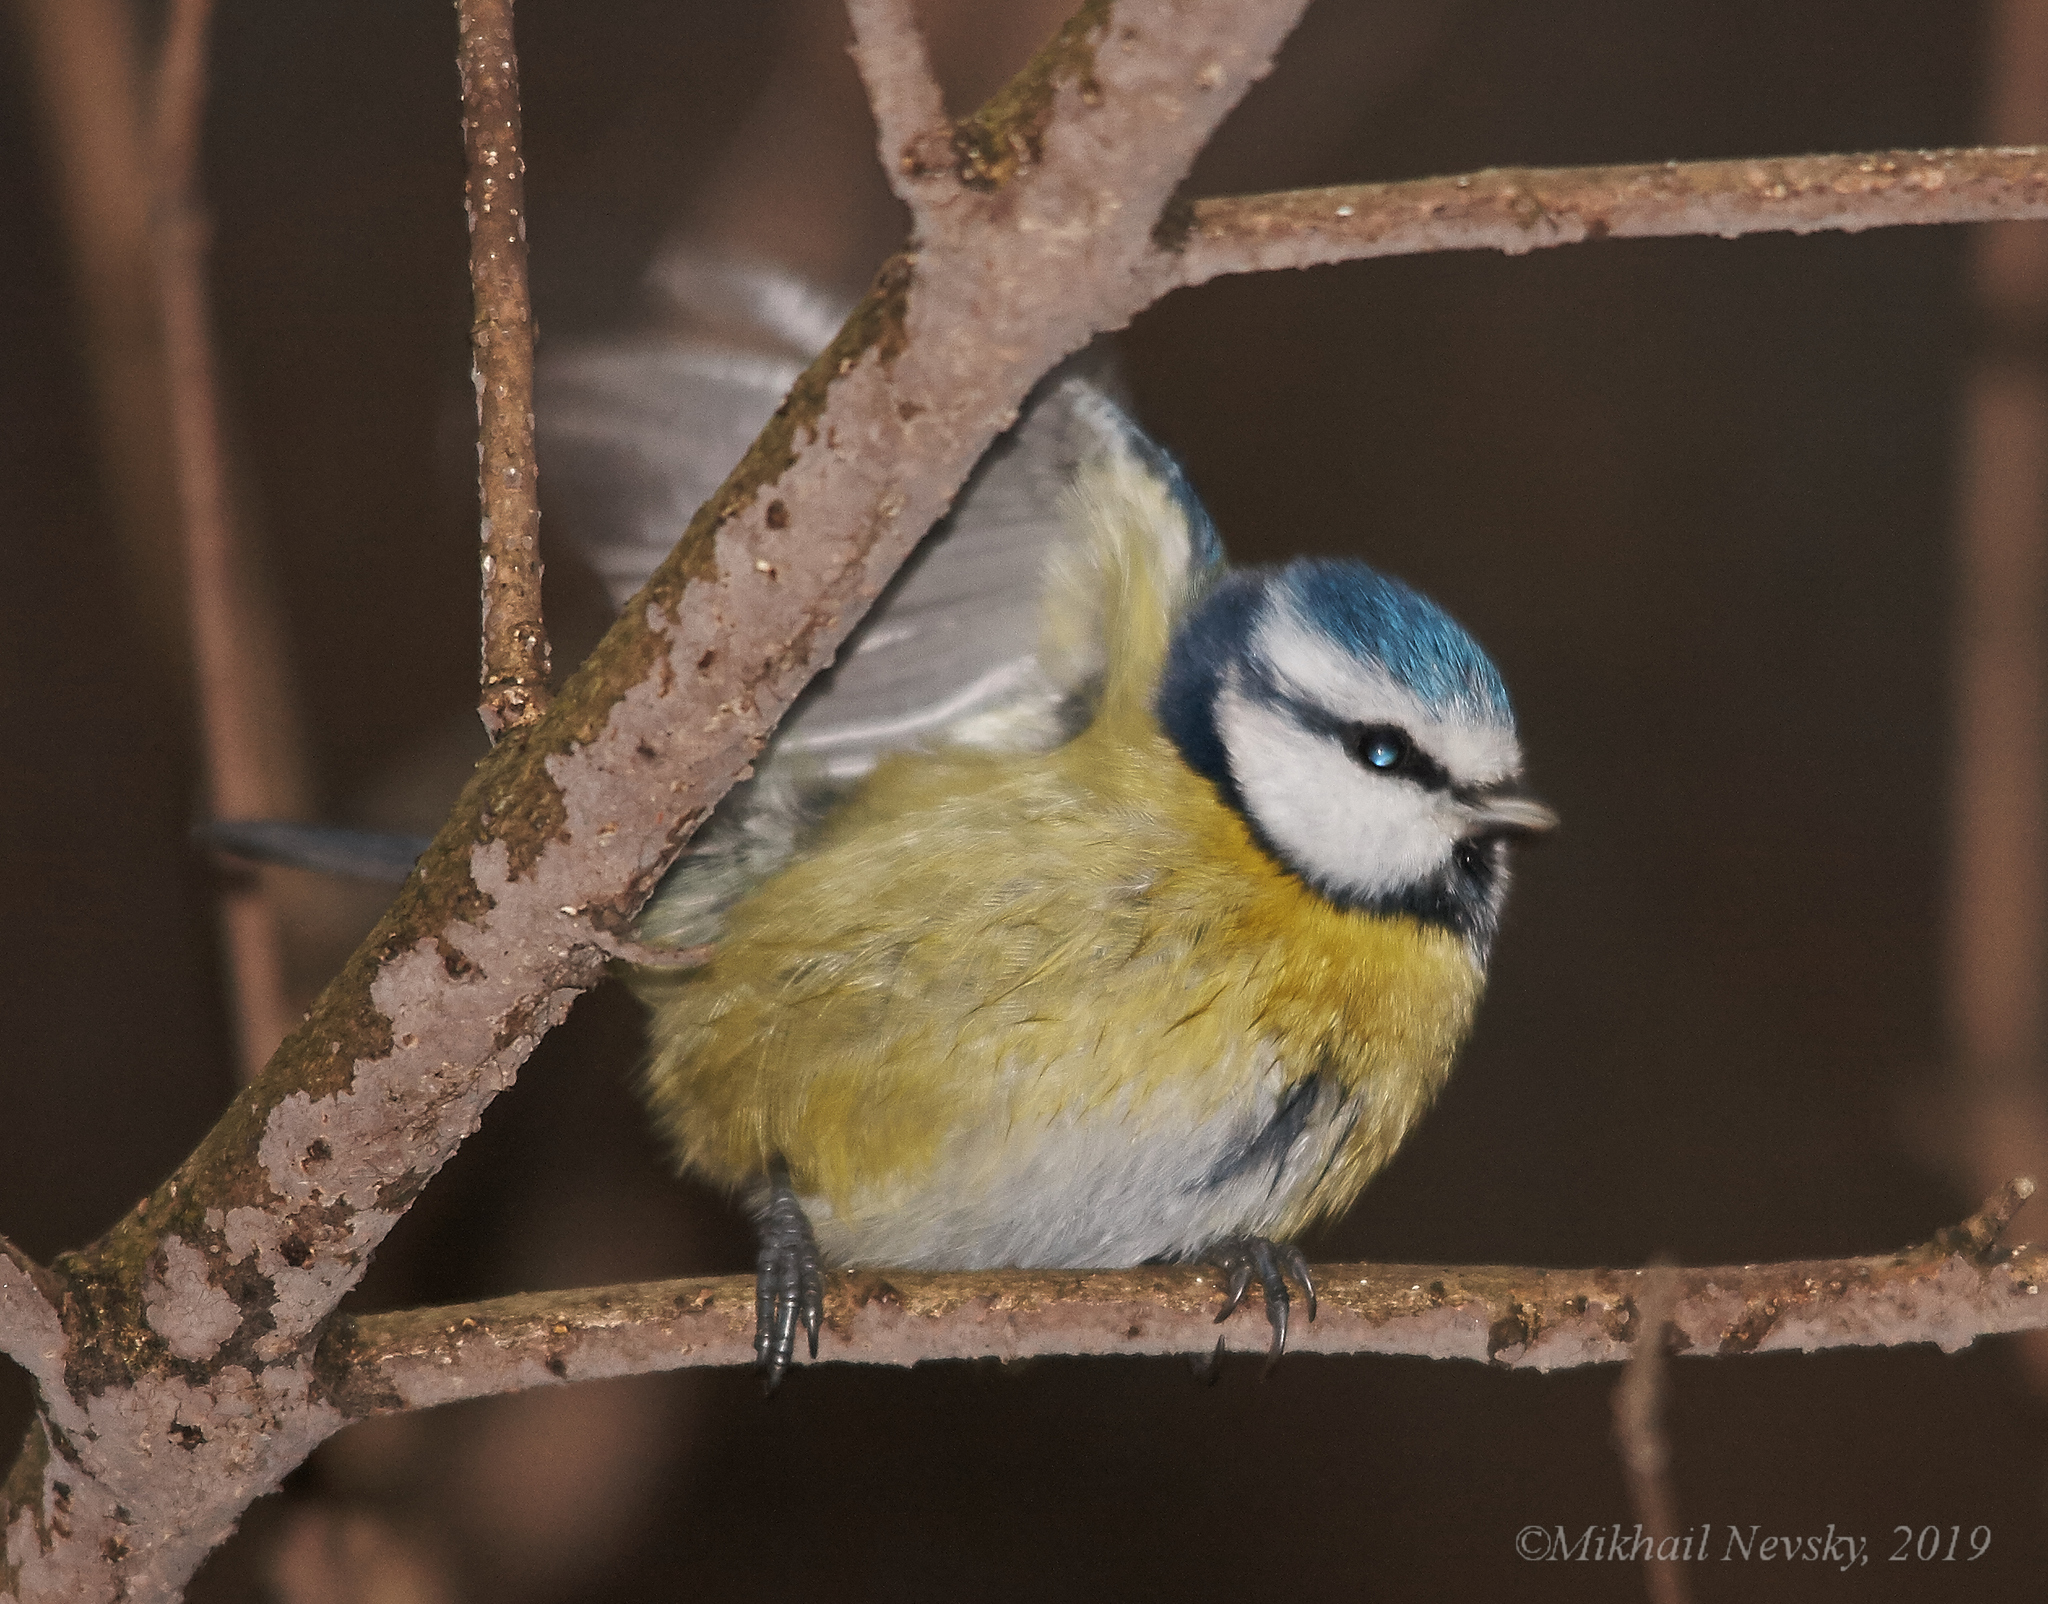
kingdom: Animalia
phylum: Chordata
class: Aves
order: Passeriformes
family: Paridae
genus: Cyanistes
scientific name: Cyanistes caeruleus
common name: Eurasian blue tit
